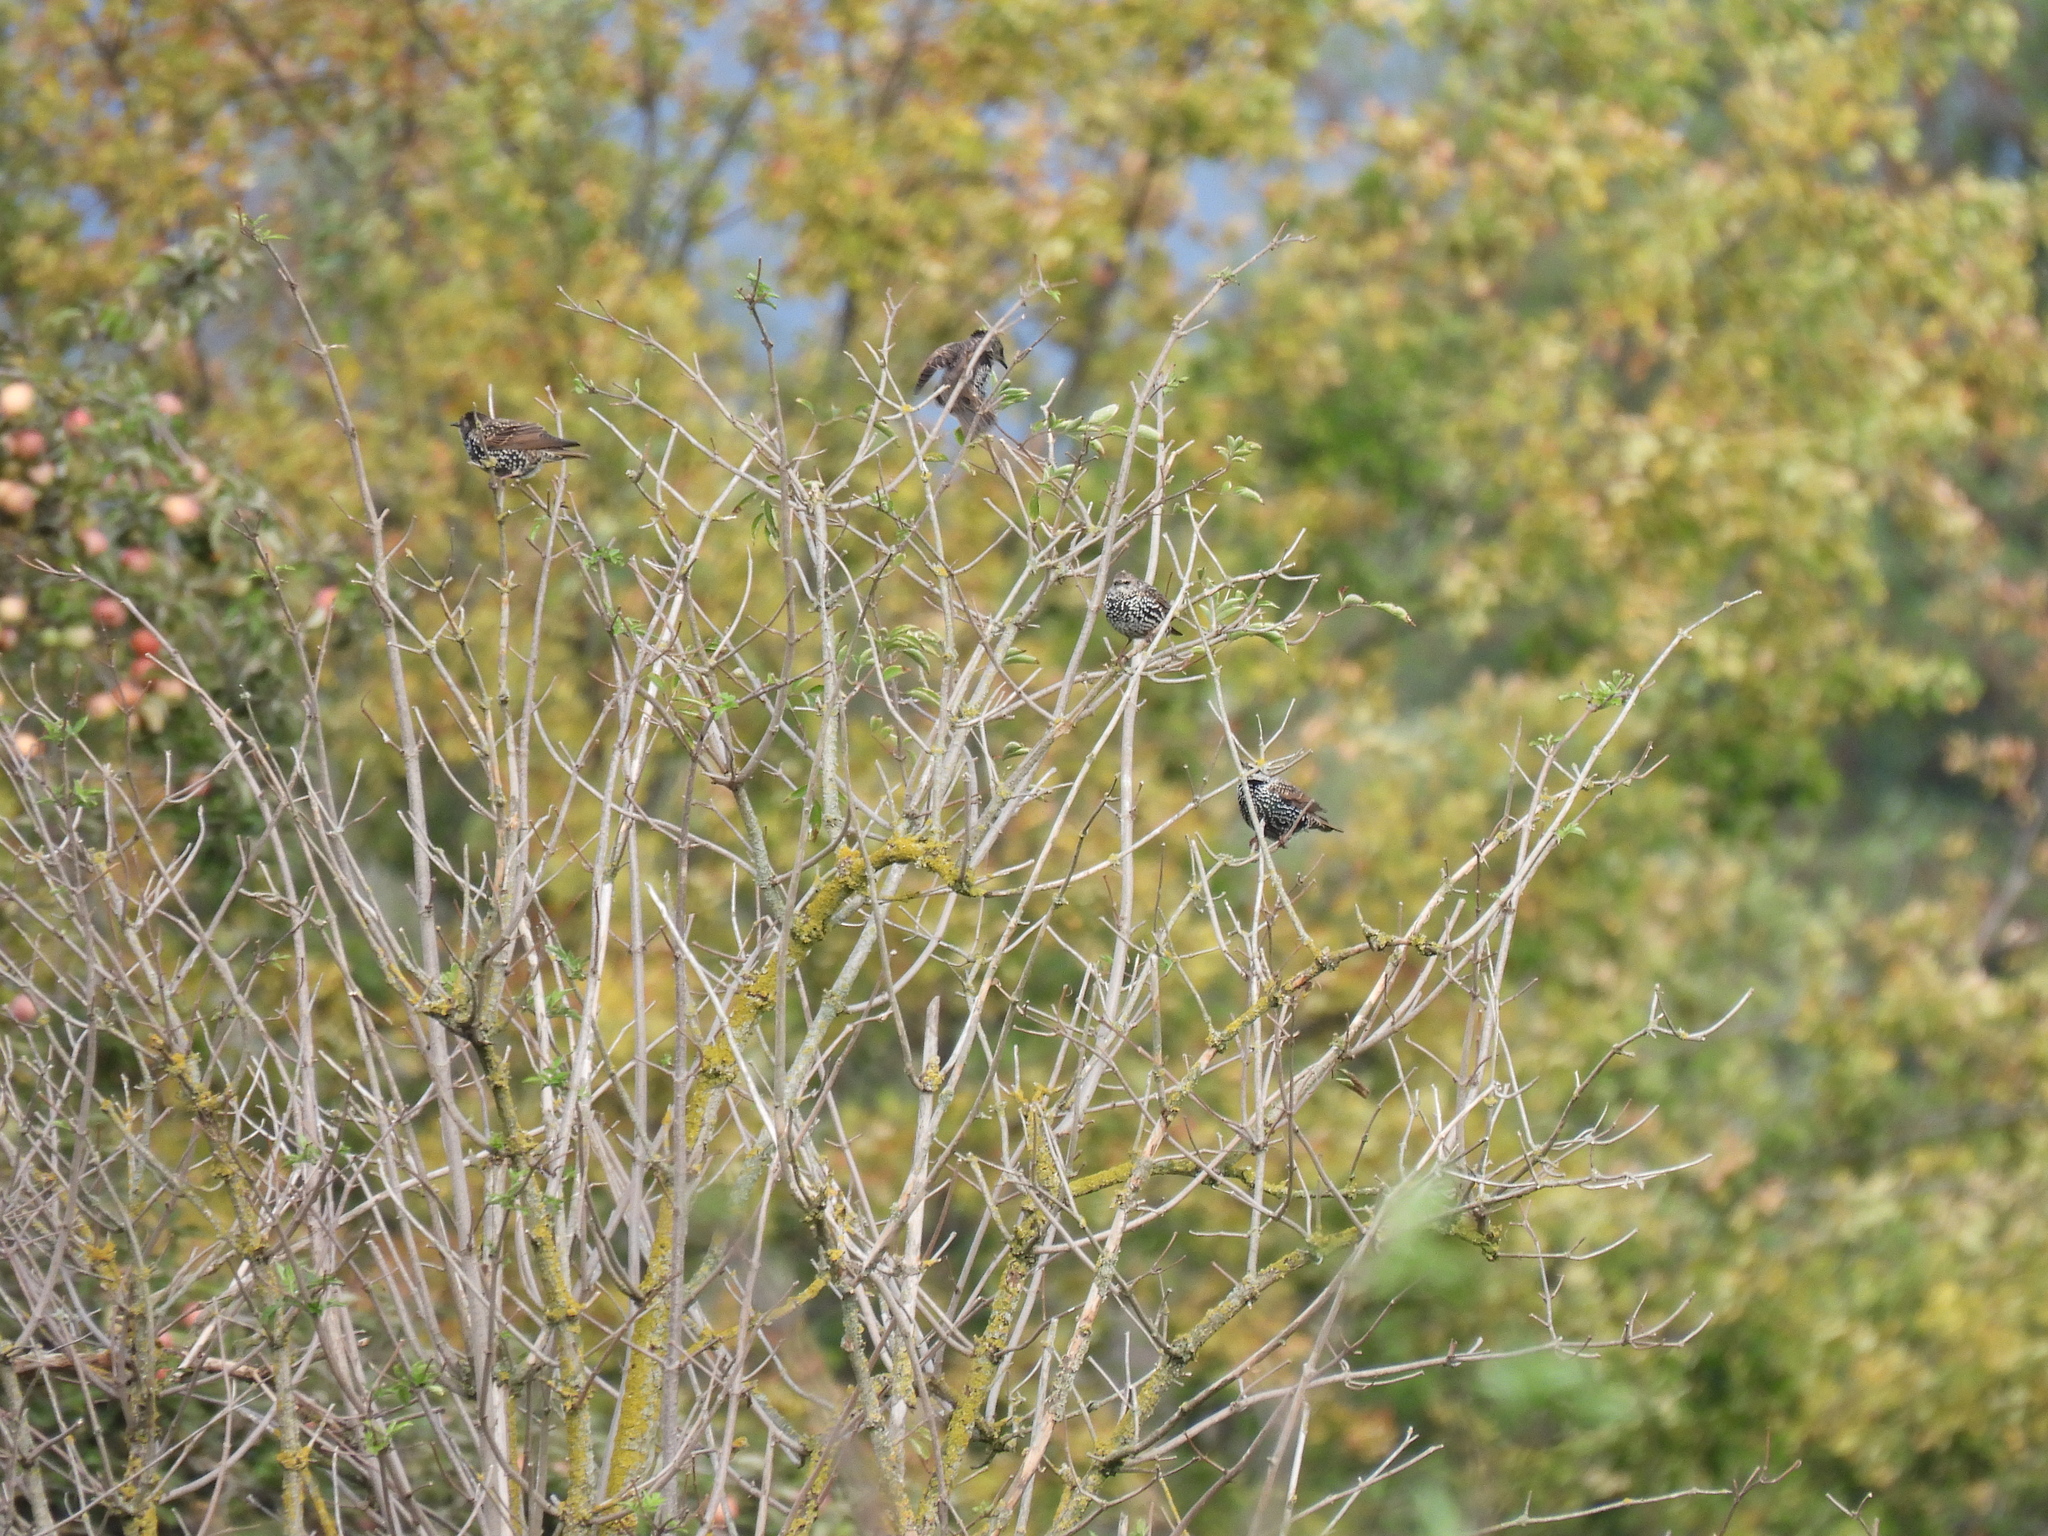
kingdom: Animalia
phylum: Chordata
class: Aves
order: Passeriformes
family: Sturnidae
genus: Sturnus
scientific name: Sturnus vulgaris
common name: Common starling
